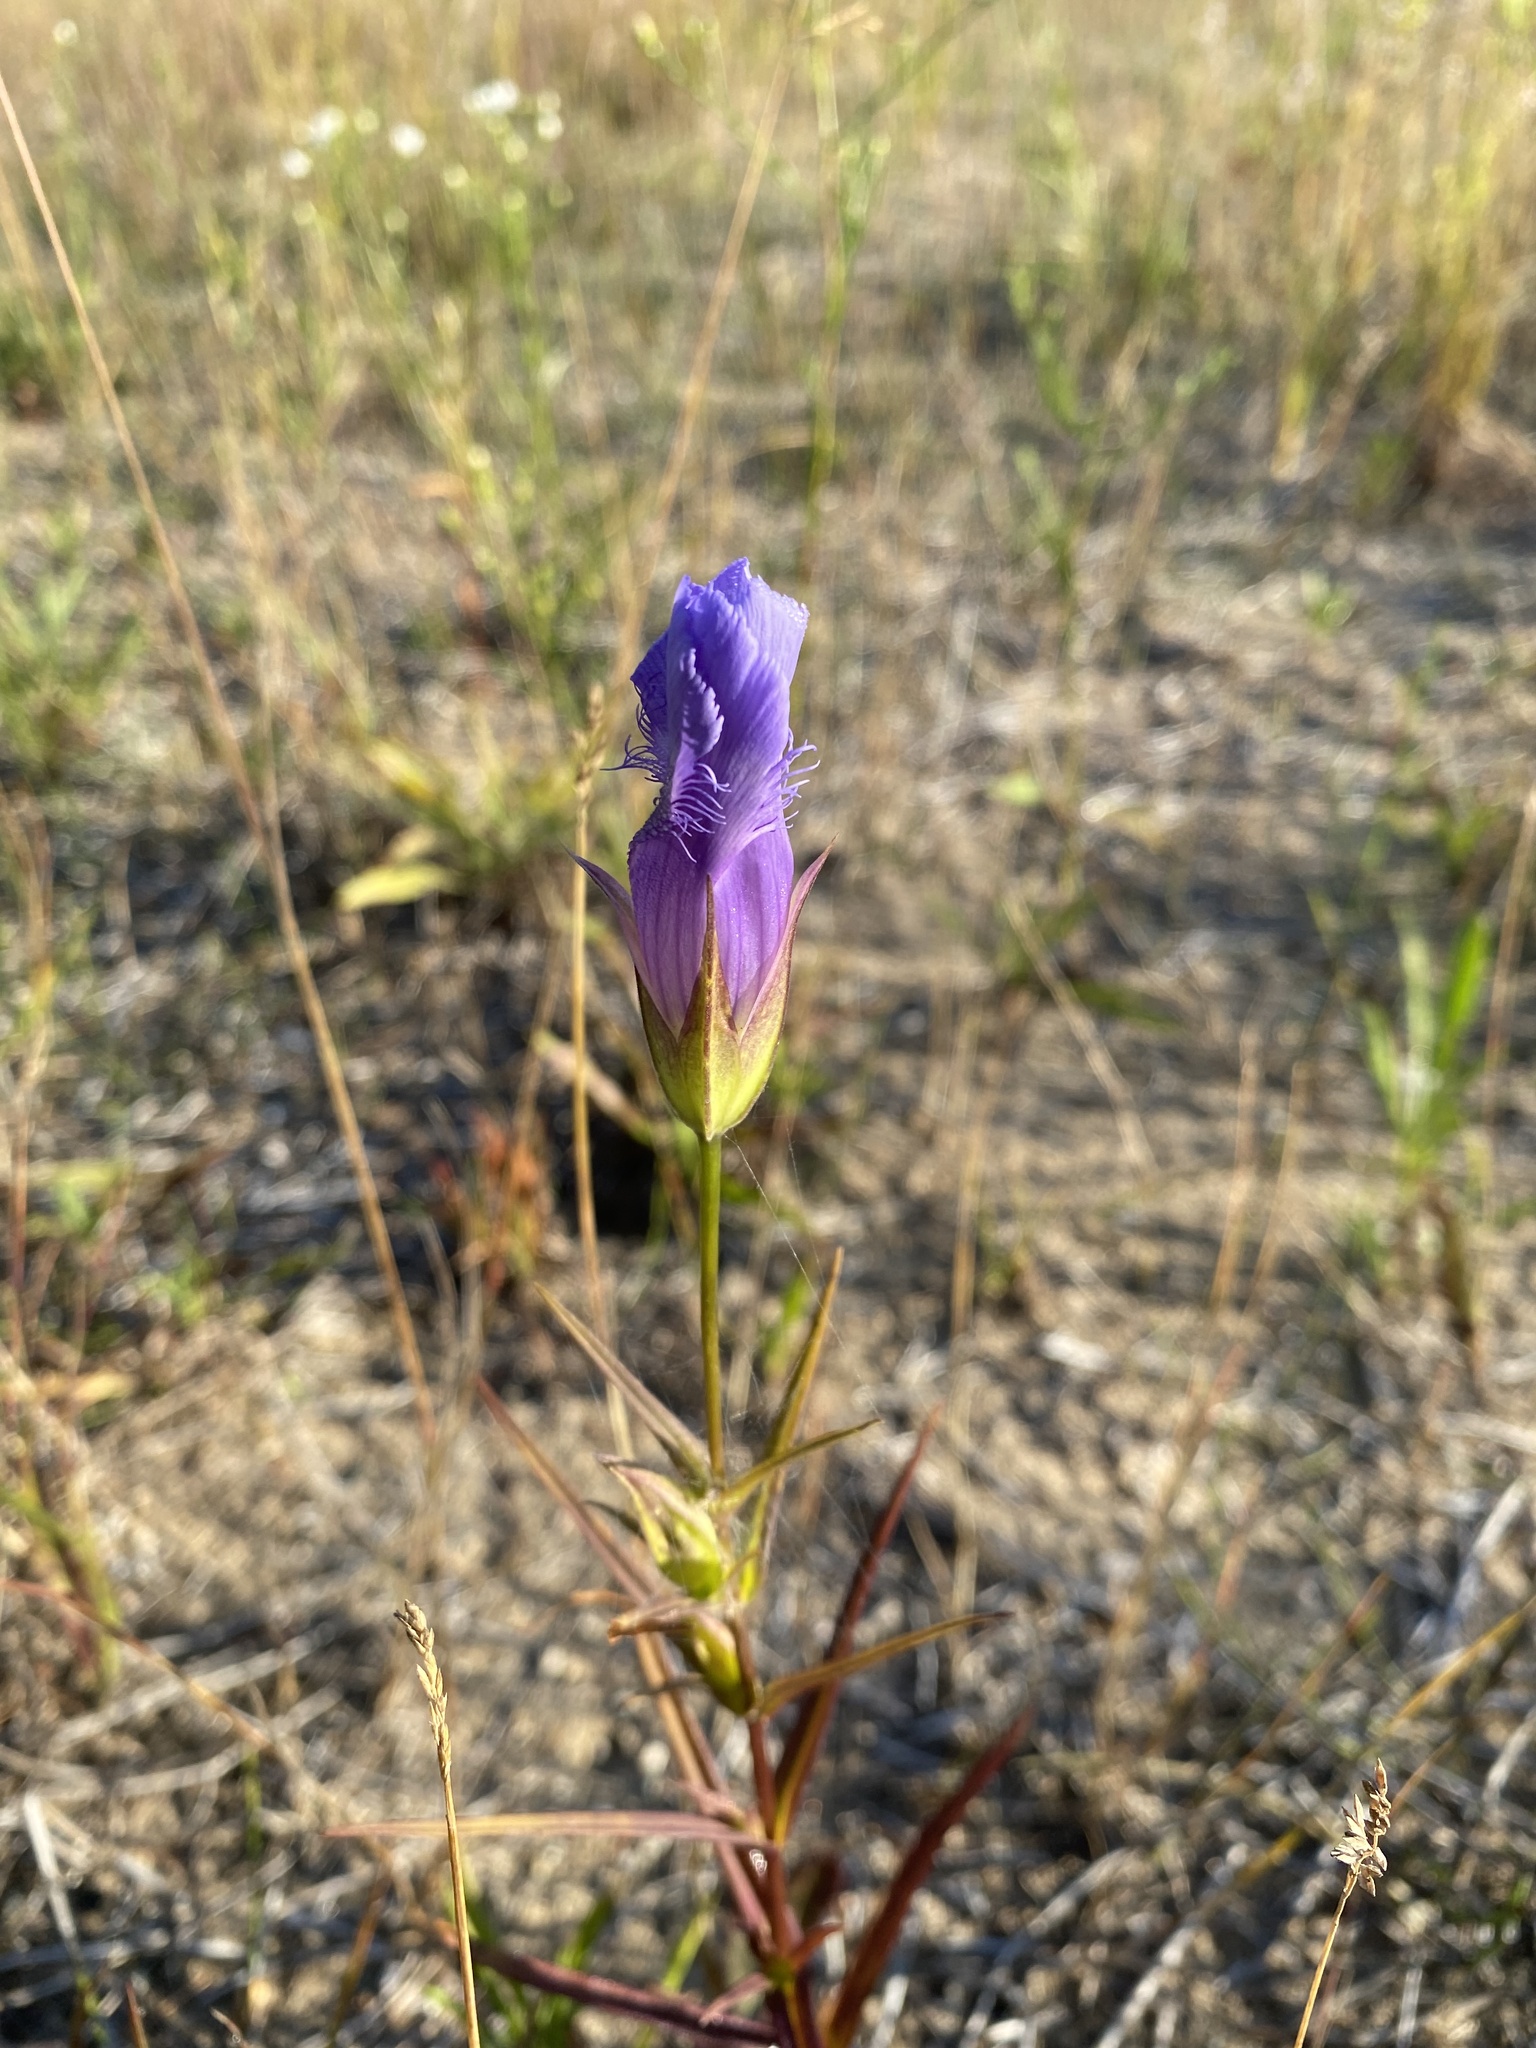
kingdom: Plantae
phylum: Tracheophyta
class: Magnoliopsida
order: Gentianales
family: Gentianaceae
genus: Gentianopsis
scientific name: Gentianopsis virgata
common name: Lesser fringed-gentian
